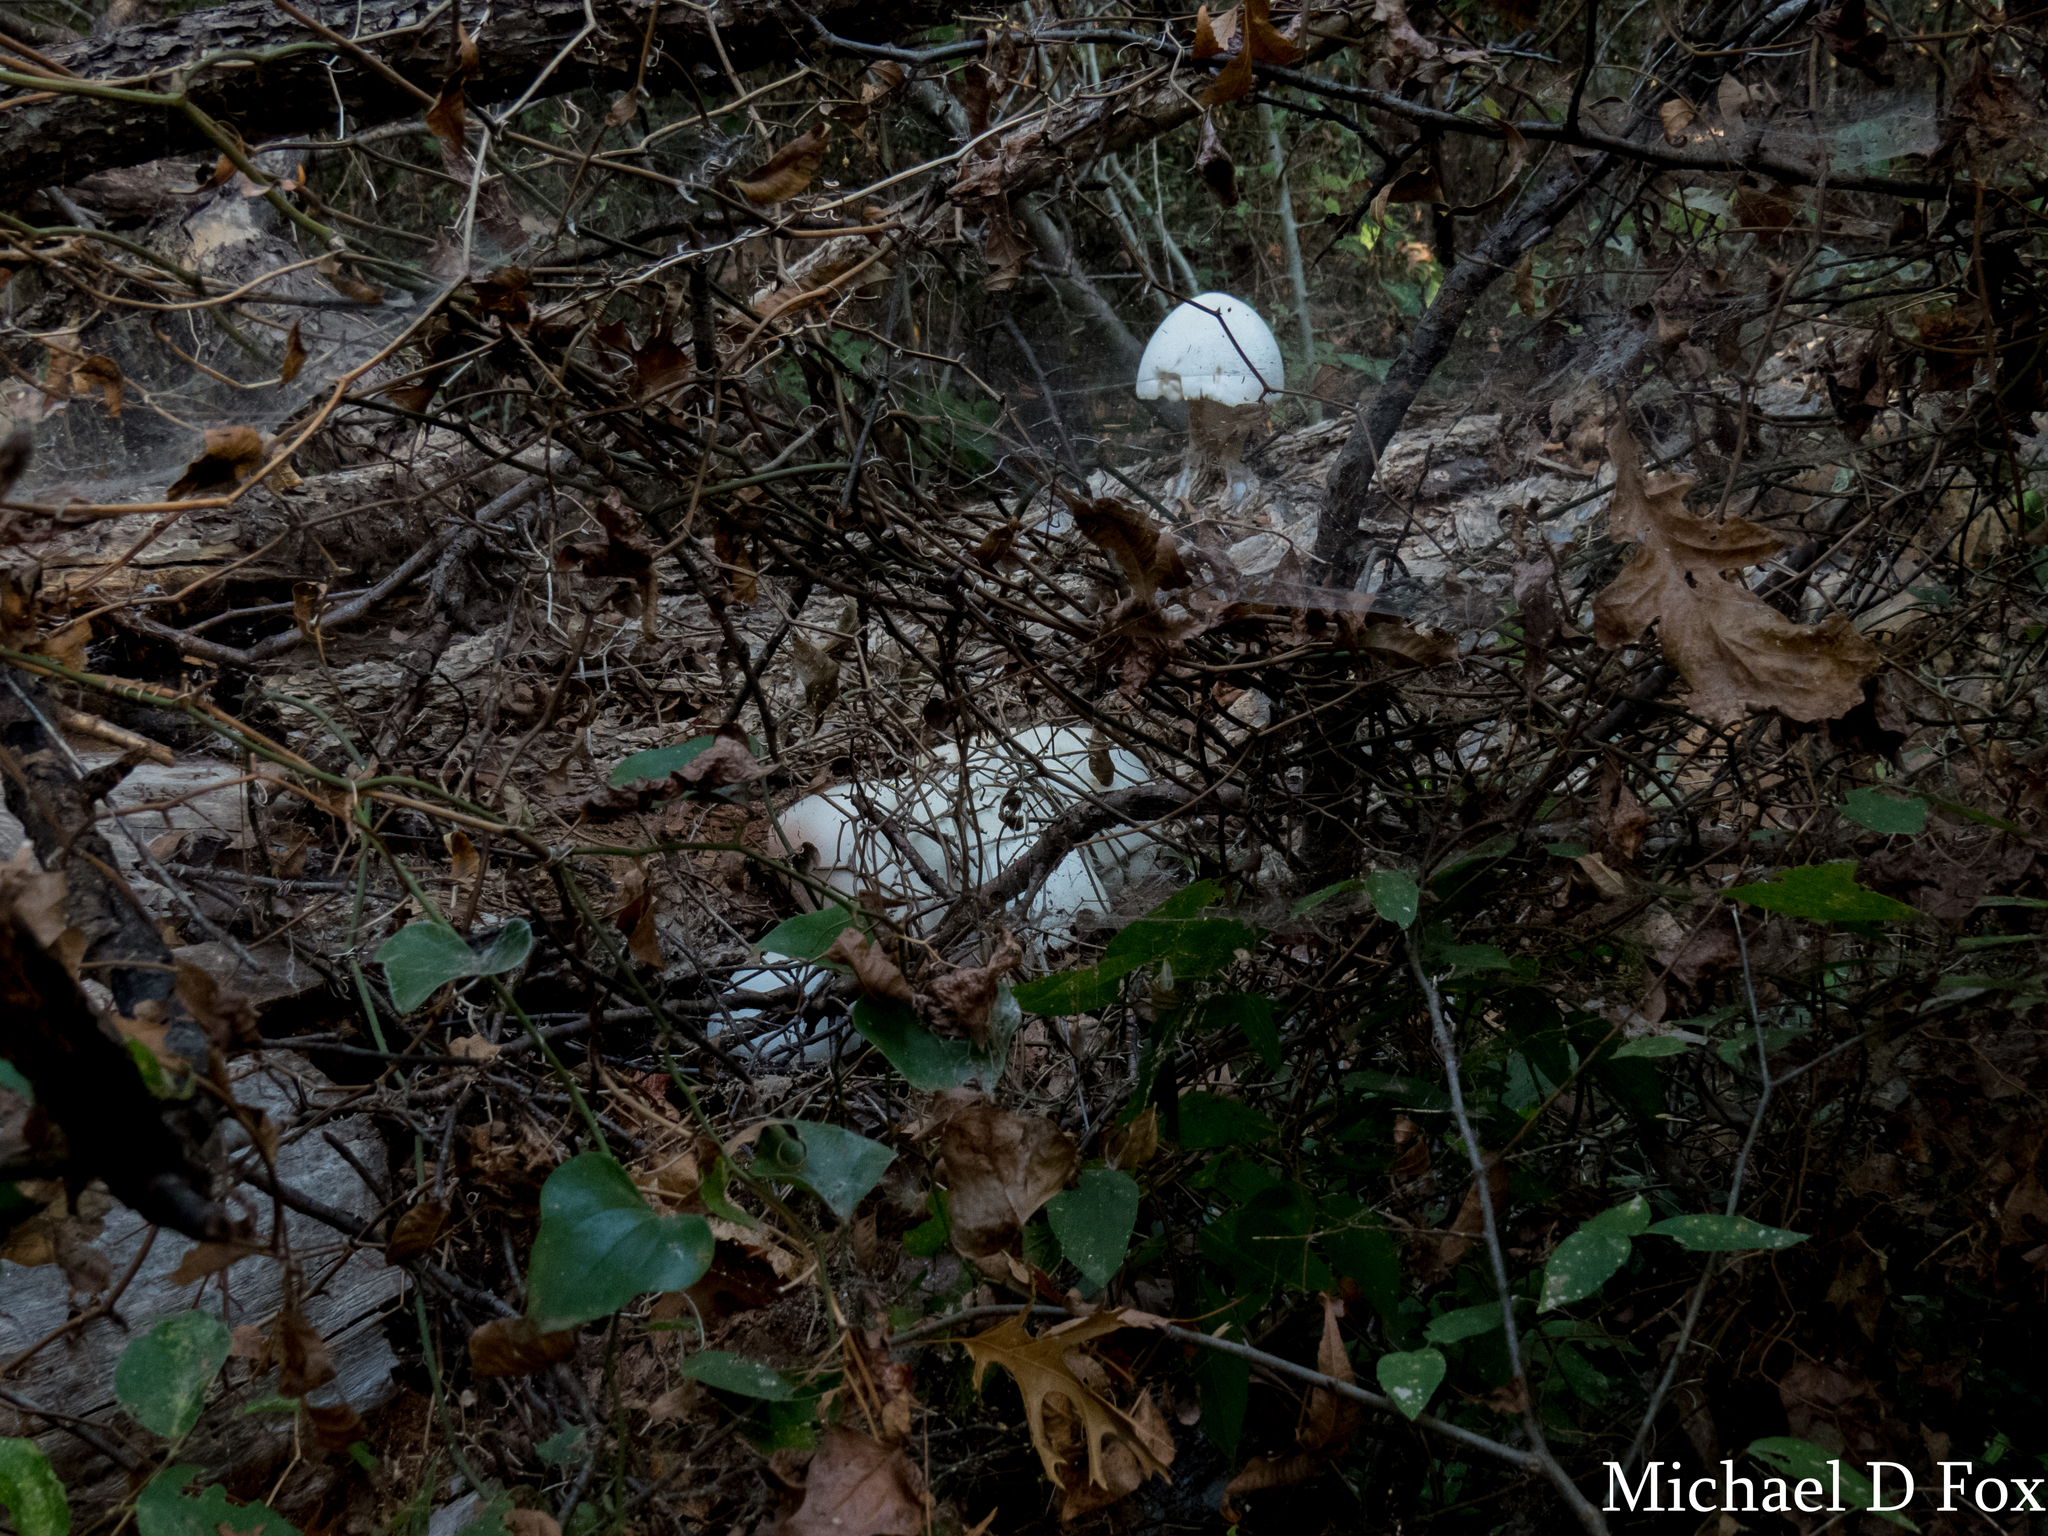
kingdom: Fungi
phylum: Basidiomycota
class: Agaricomycetes
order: Agaricales
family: Pluteaceae
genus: Volvariella
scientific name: Volvariella bombycina
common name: Silky rosegill
